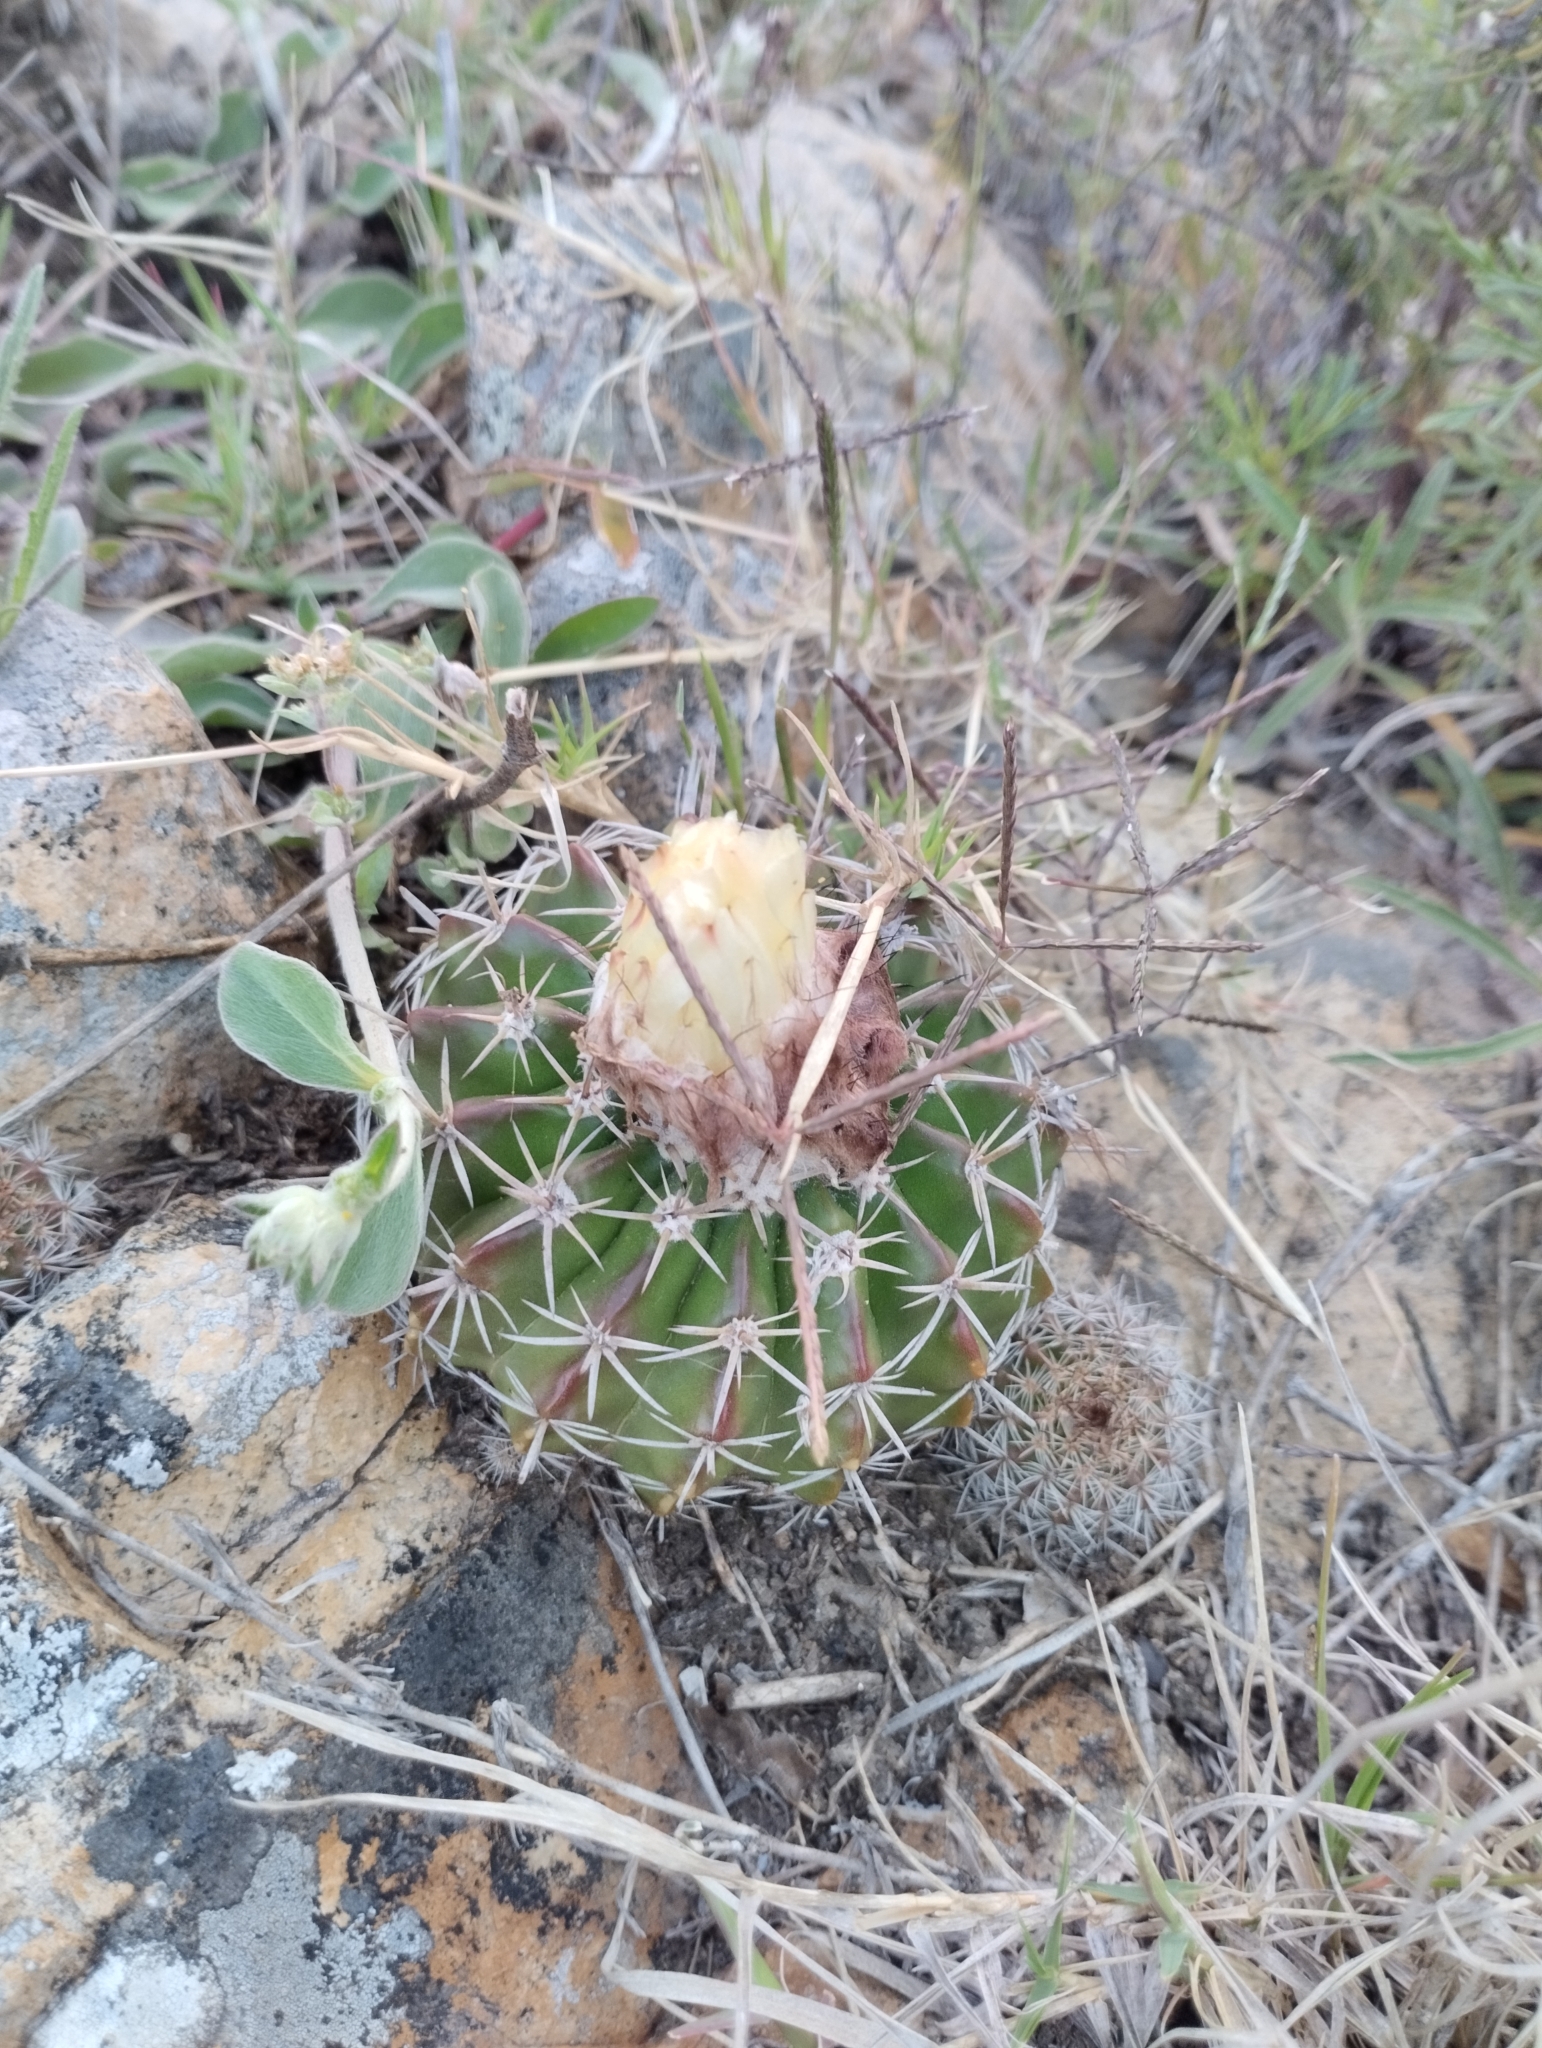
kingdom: Plantae
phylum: Tracheophyta
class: Magnoliopsida
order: Caryophyllales
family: Cactaceae
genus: Parodia
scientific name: Parodia erinacea
